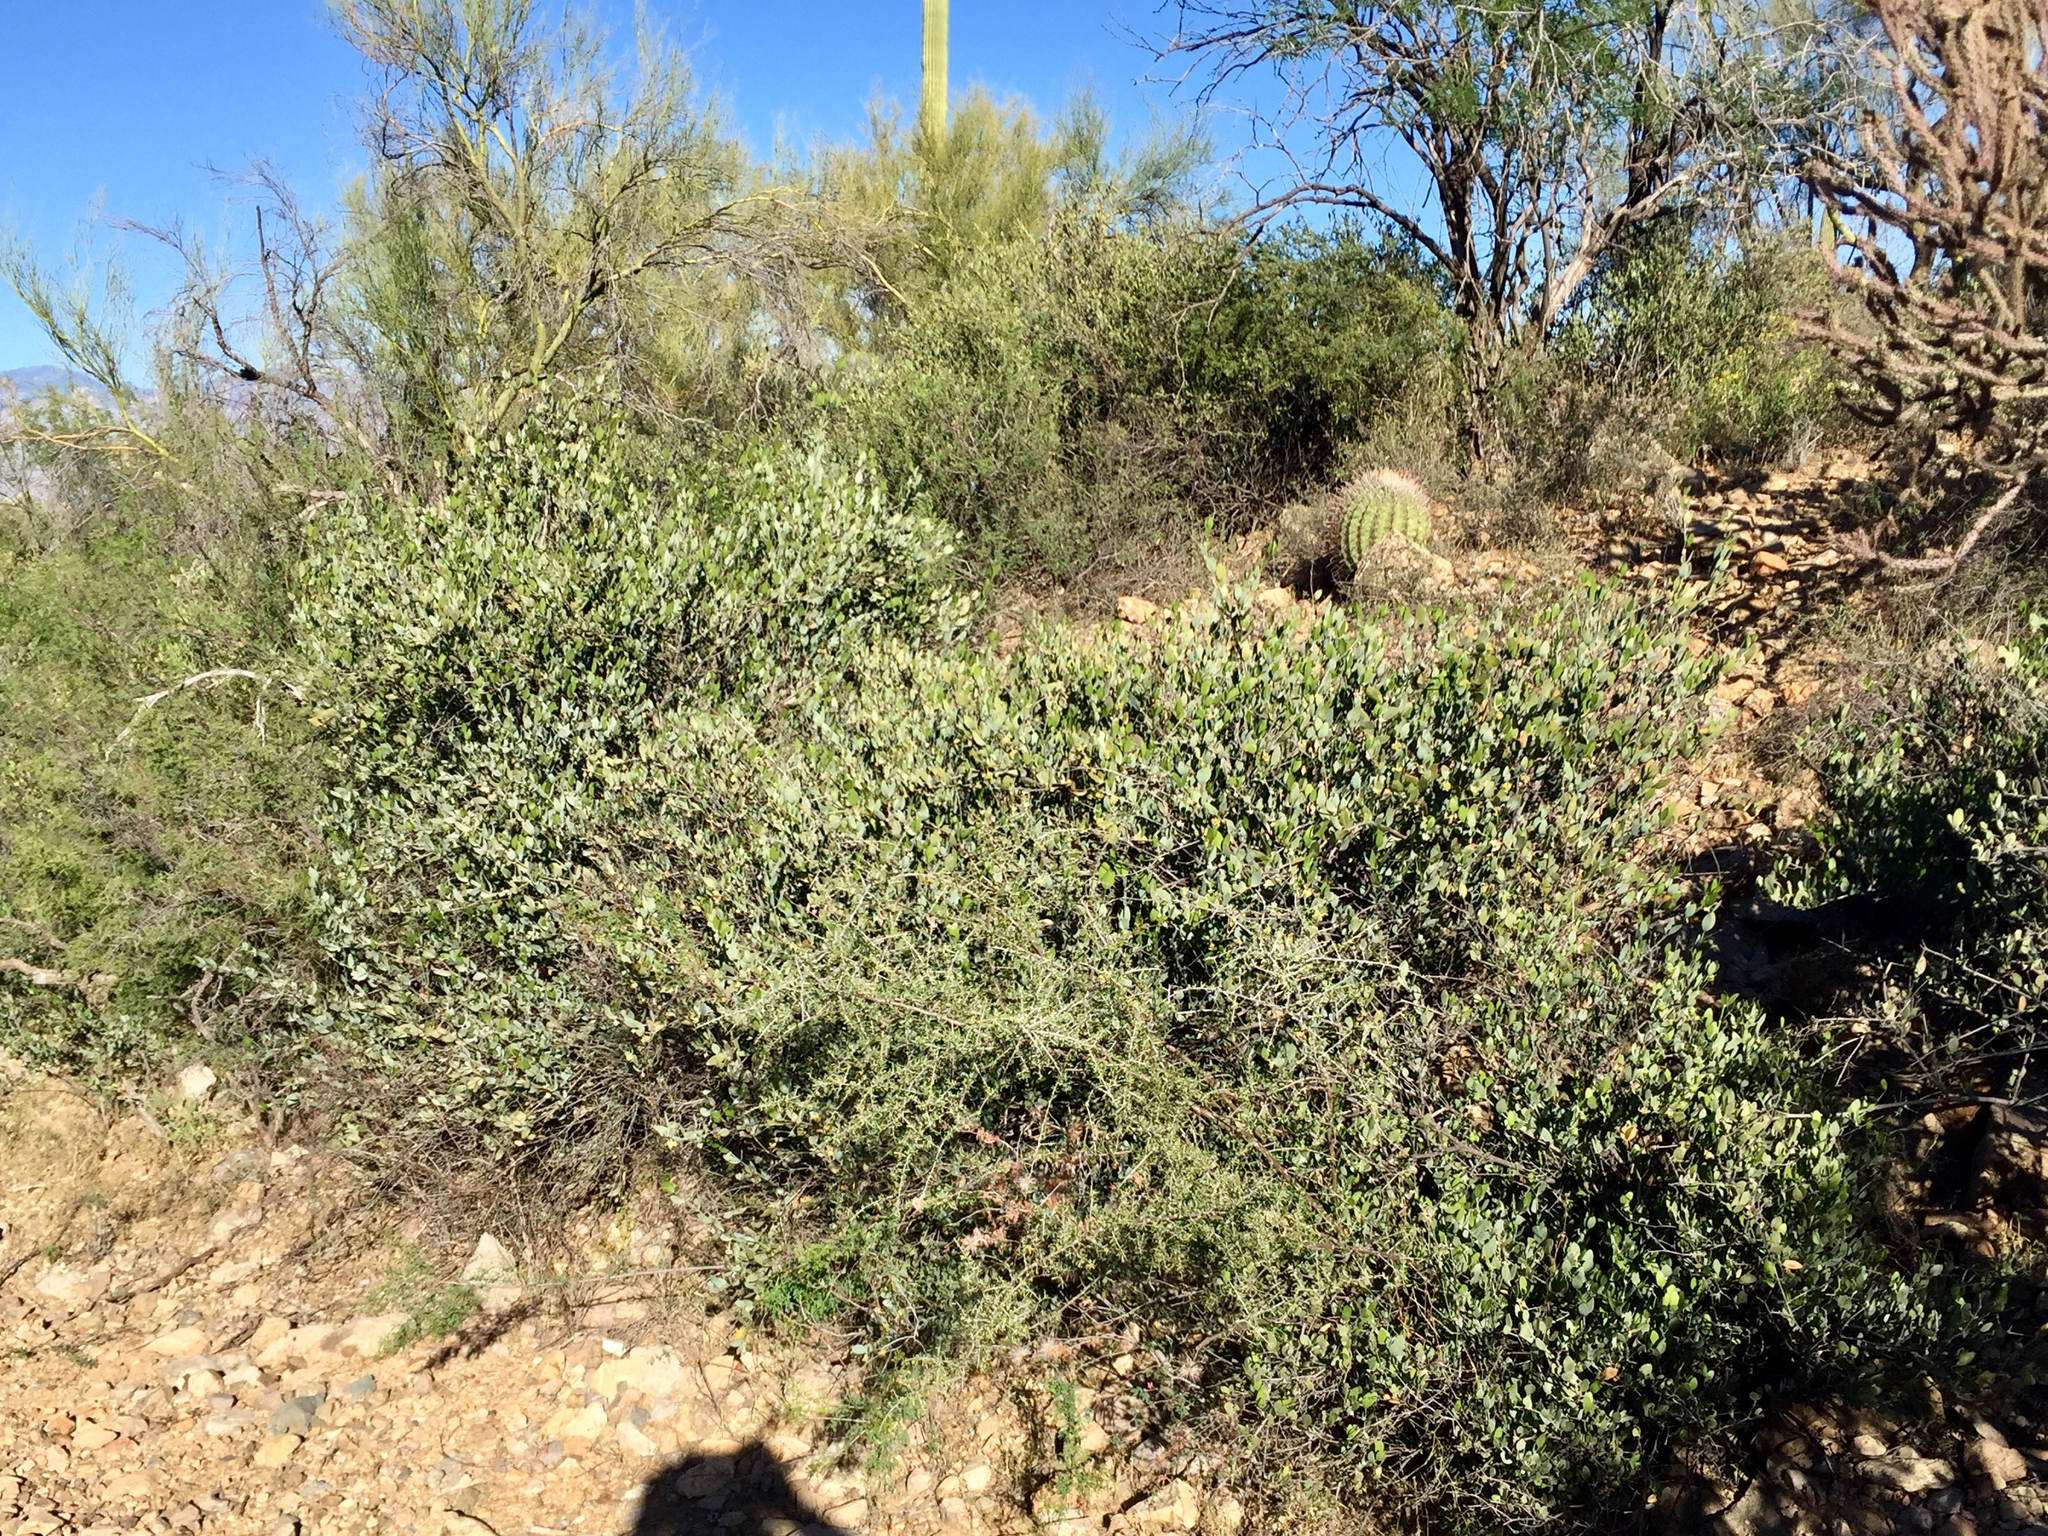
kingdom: Plantae
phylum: Tracheophyta
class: Magnoliopsida
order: Caryophyllales
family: Simmondsiaceae
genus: Simmondsia
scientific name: Simmondsia chinensis
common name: Jojoba
